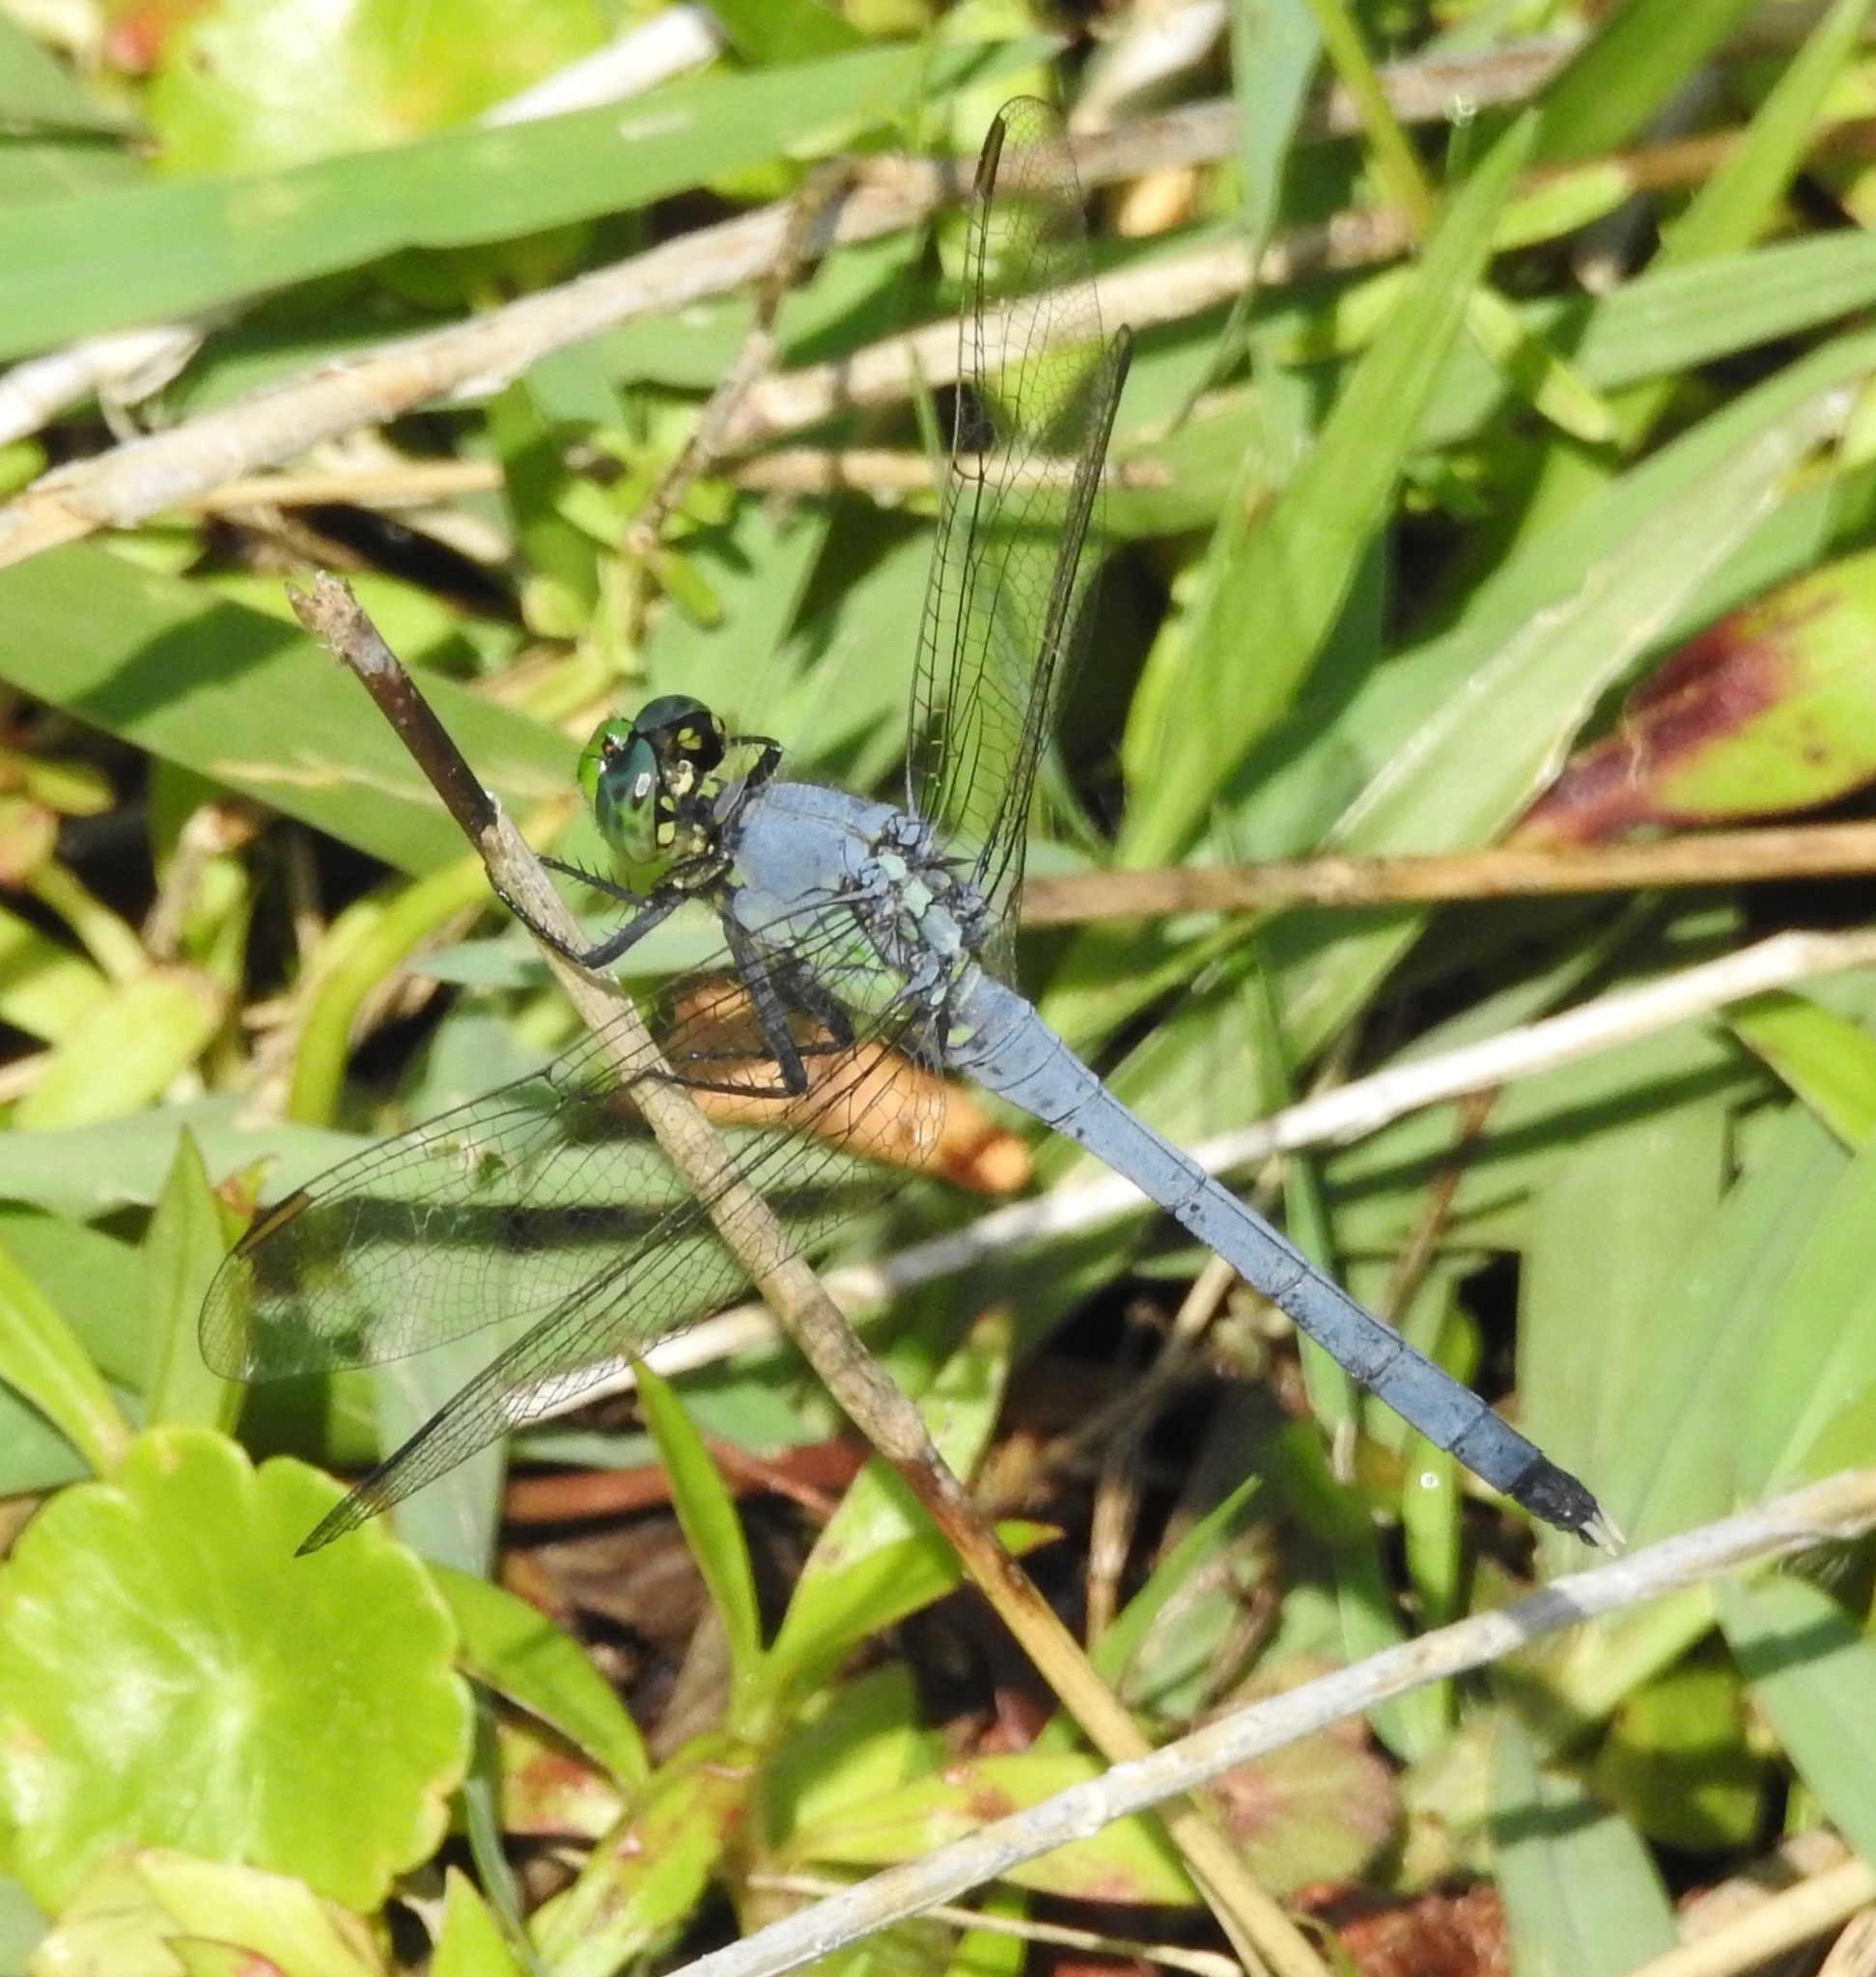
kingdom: Animalia
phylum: Arthropoda
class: Insecta
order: Odonata
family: Libellulidae
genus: Erythemis
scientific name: Erythemis simplicicollis
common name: Eastern pondhawk
